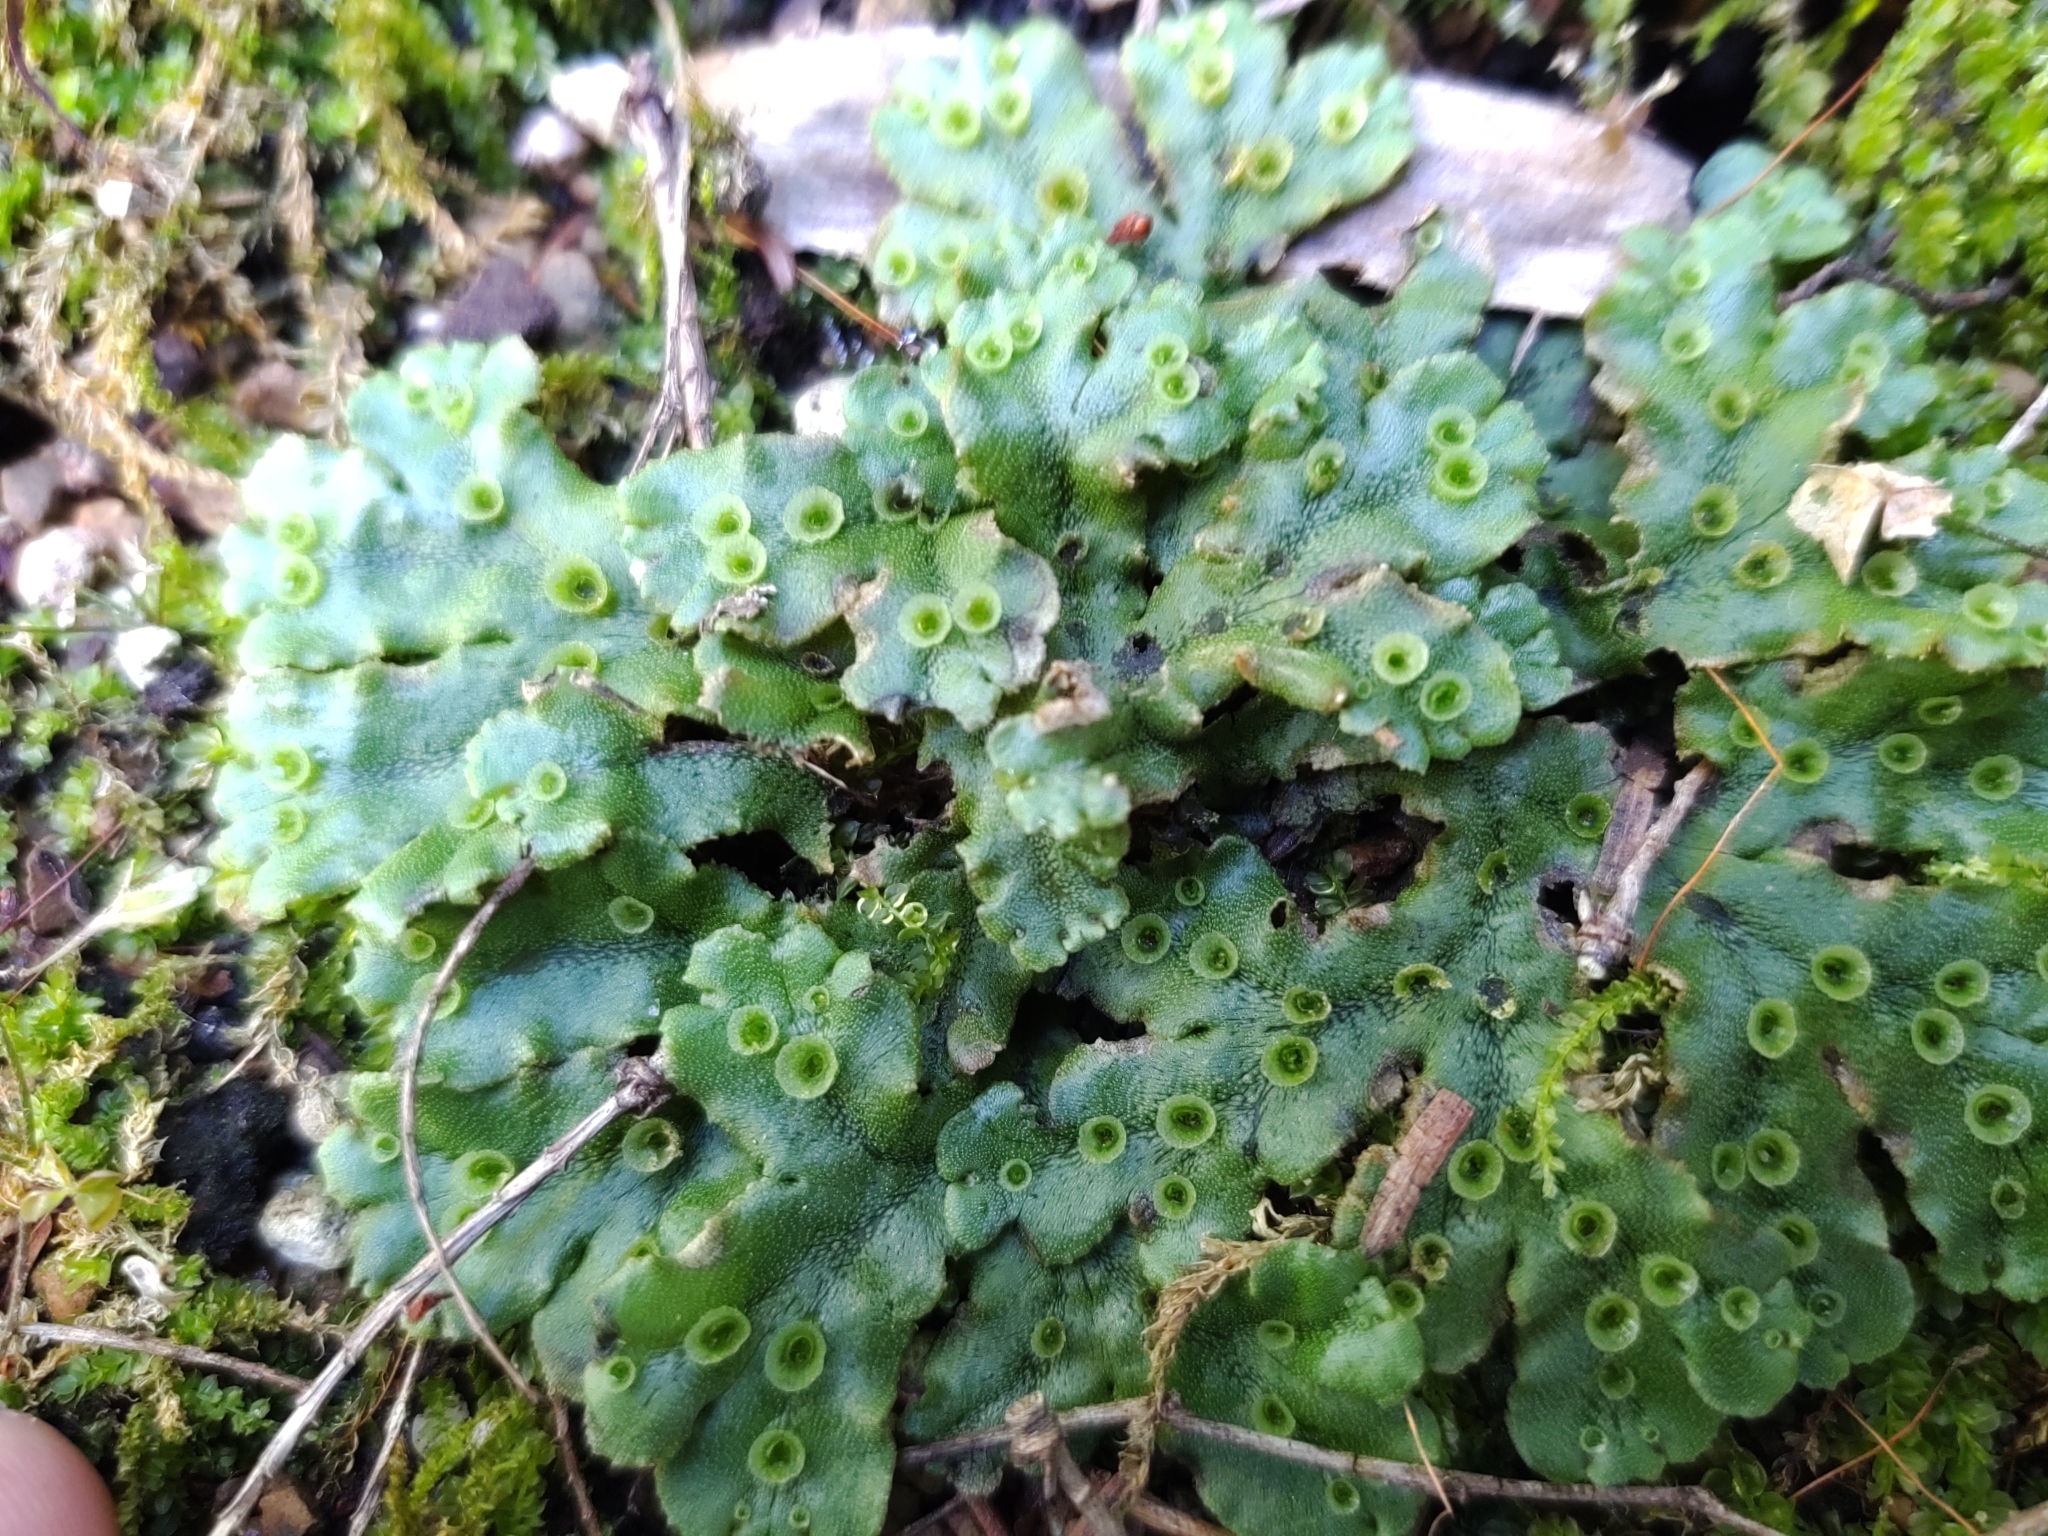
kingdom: Plantae
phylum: Marchantiophyta
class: Marchantiopsida
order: Marchantiales
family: Marchantiaceae
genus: Marchantia
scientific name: Marchantia polymorpha
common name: Common liverwort
